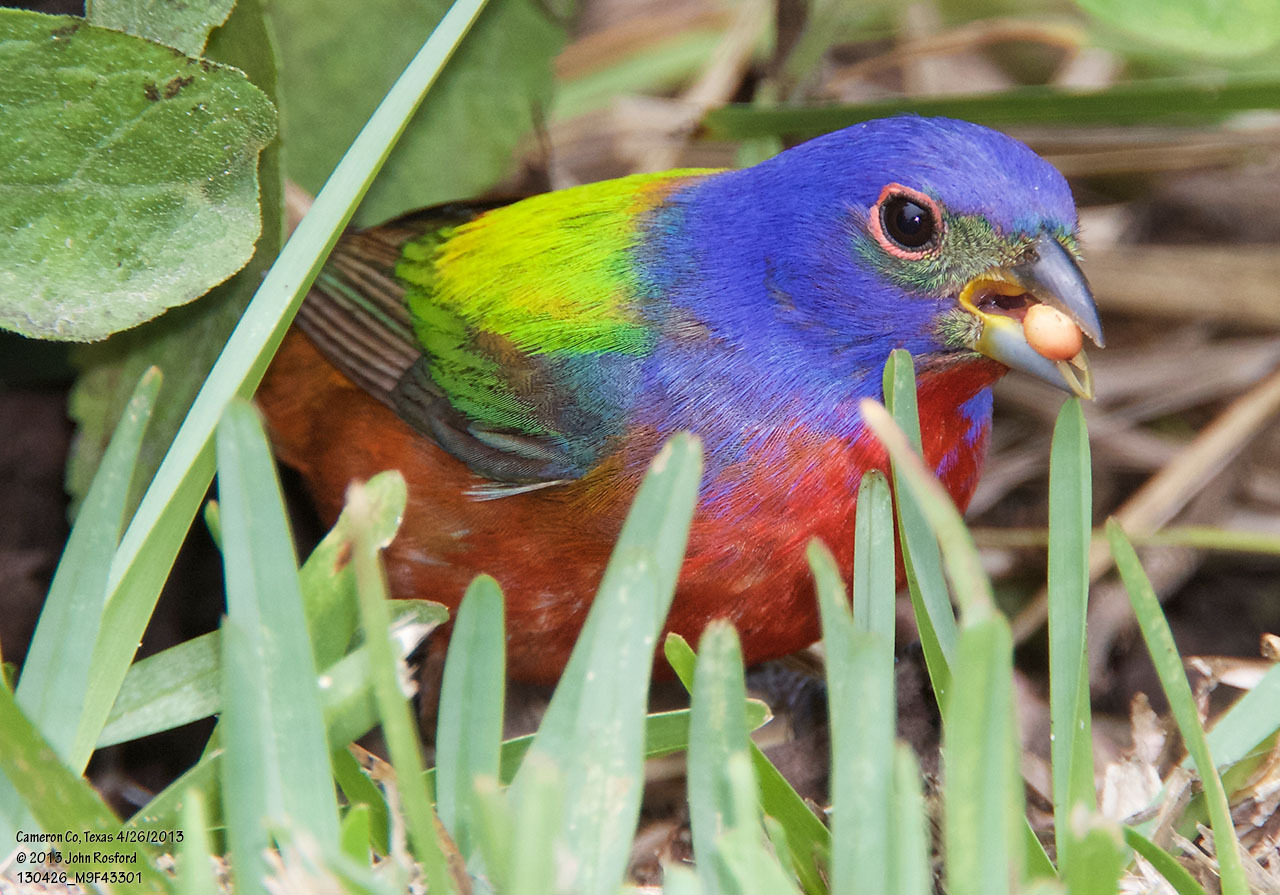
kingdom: Animalia
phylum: Chordata
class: Aves
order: Passeriformes
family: Cardinalidae
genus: Passerina
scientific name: Passerina ciris
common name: Painted bunting
